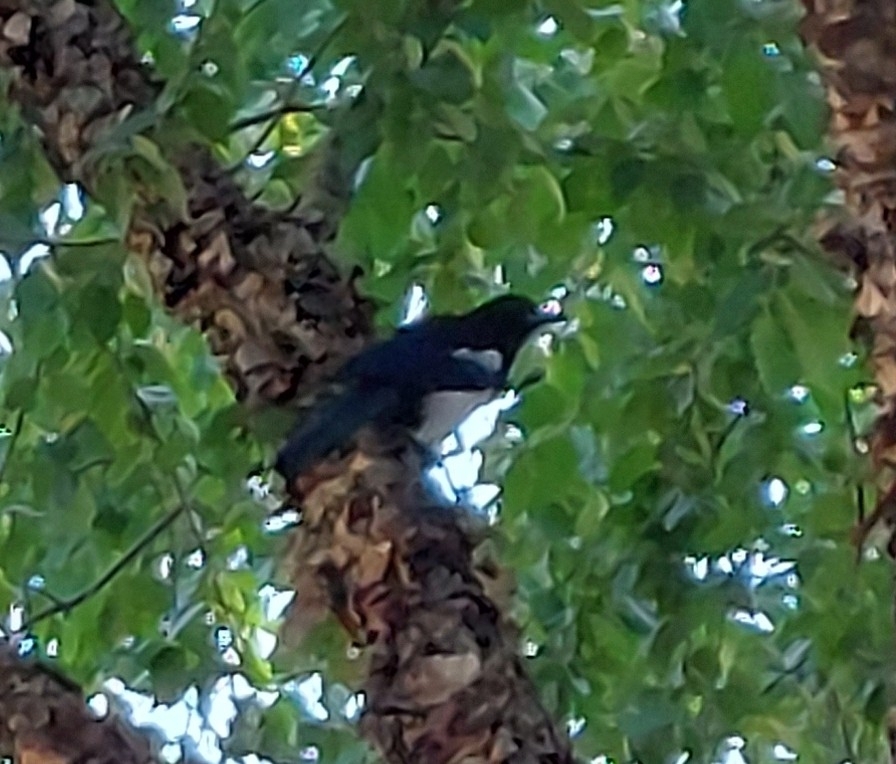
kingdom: Animalia
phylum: Chordata
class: Aves
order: Passeriformes
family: Corvidae
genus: Pica
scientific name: Pica pica
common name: Eurasian magpie
